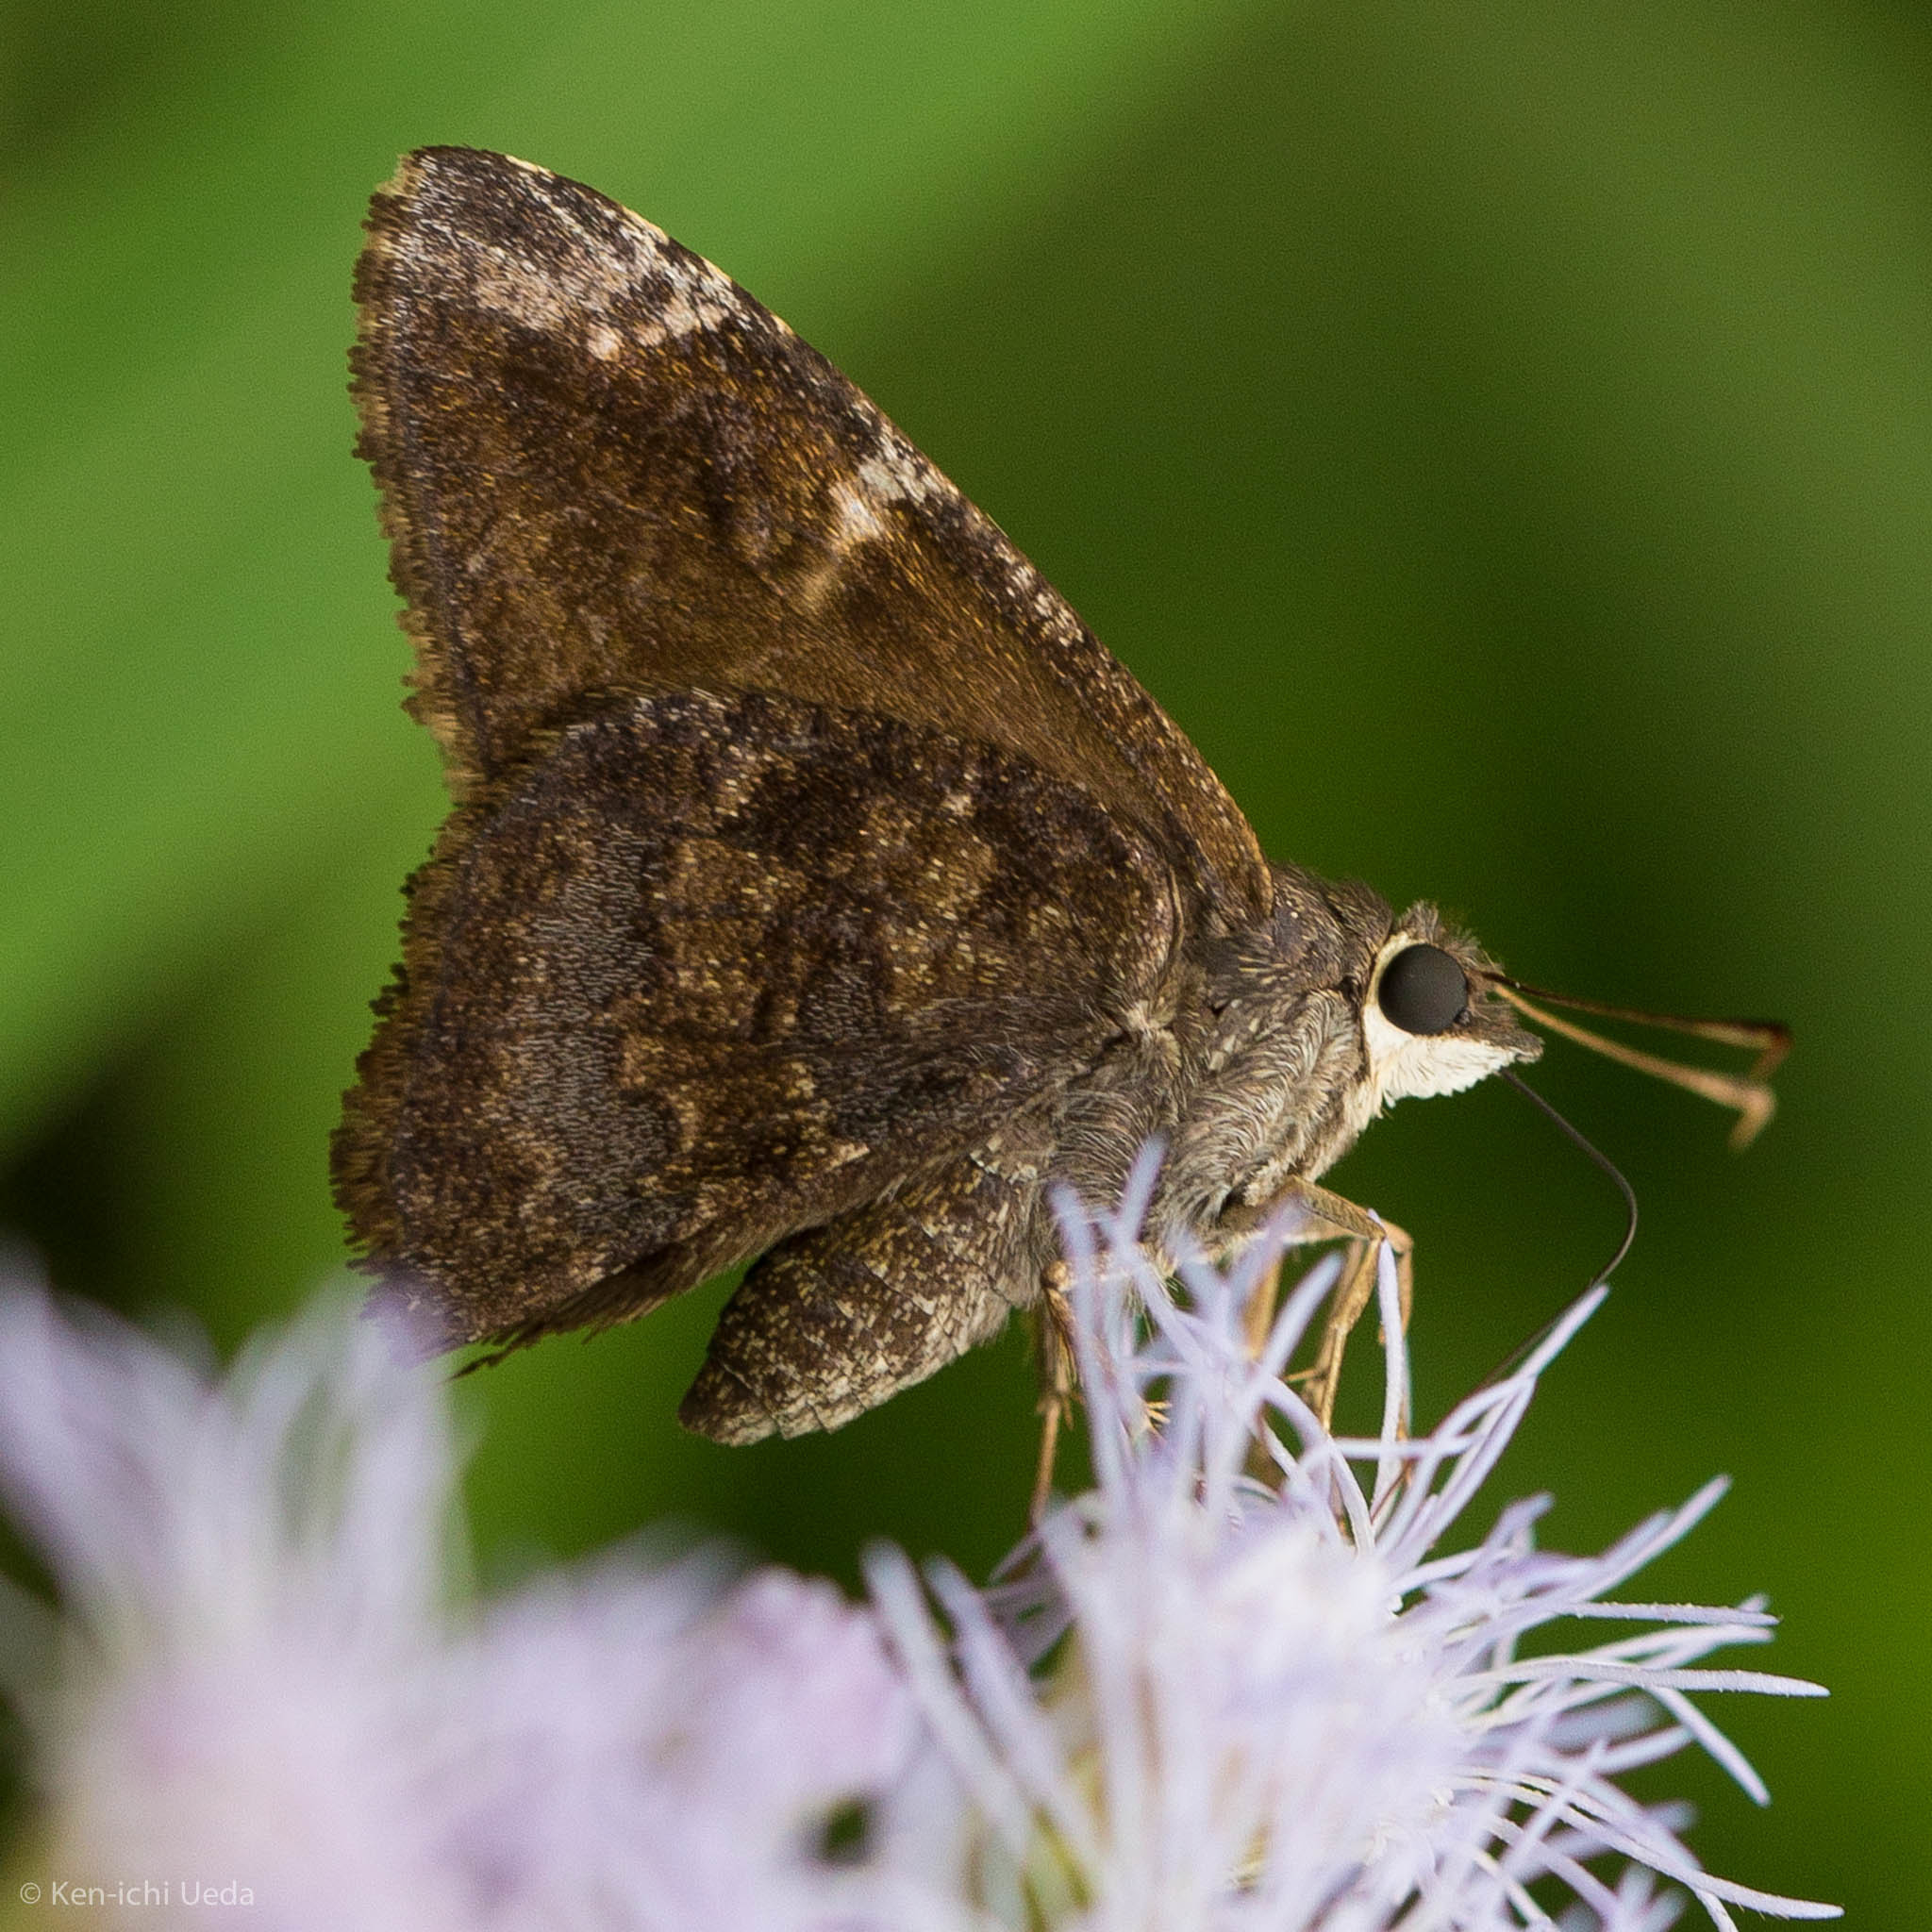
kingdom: Animalia
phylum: Arthropoda
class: Insecta
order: Lepidoptera
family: Hesperiidae
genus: Caicella
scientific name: Caicella calchas
